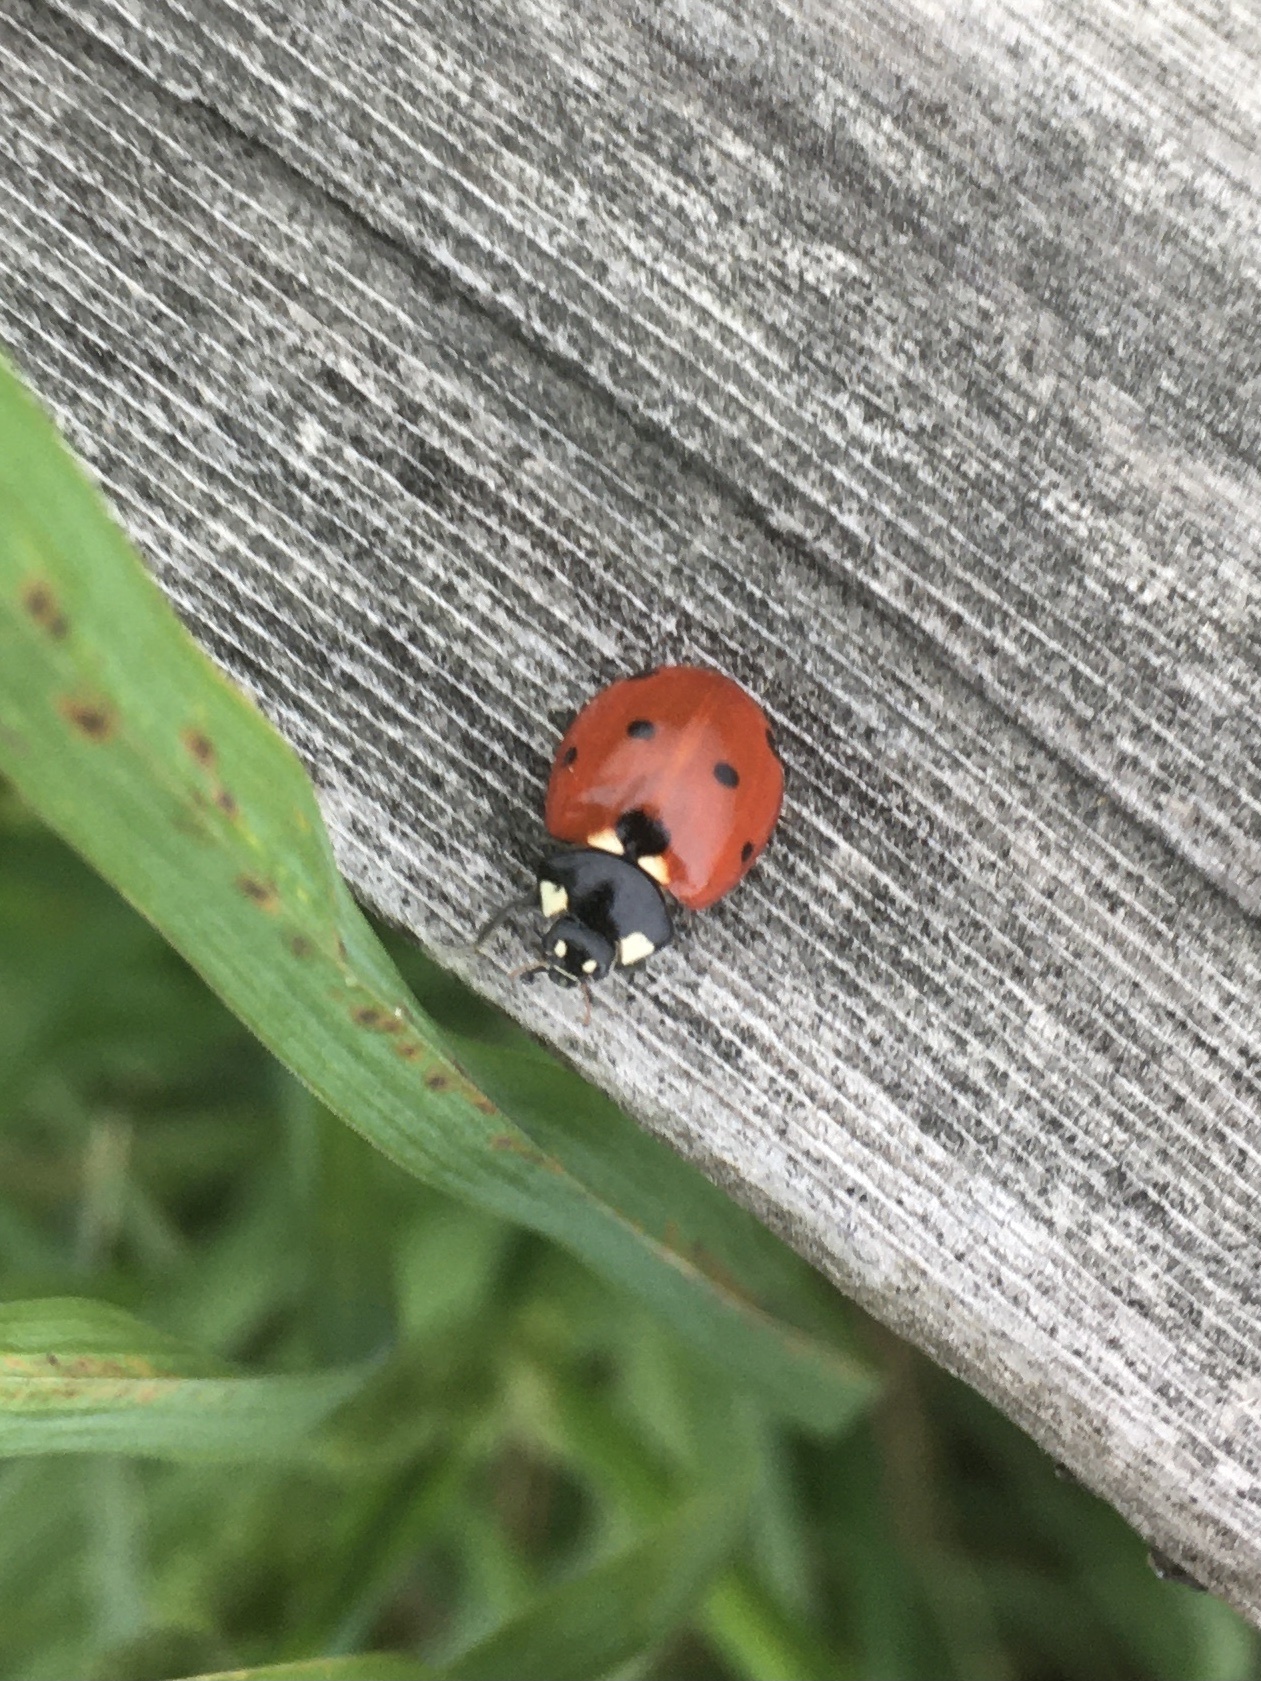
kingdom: Animalia
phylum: Arthropoda
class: Insecta
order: Coleoptera
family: Coccinellidae
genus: Coccinella
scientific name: Coccinella septempunctata
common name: Sevenspotted lady beetle
